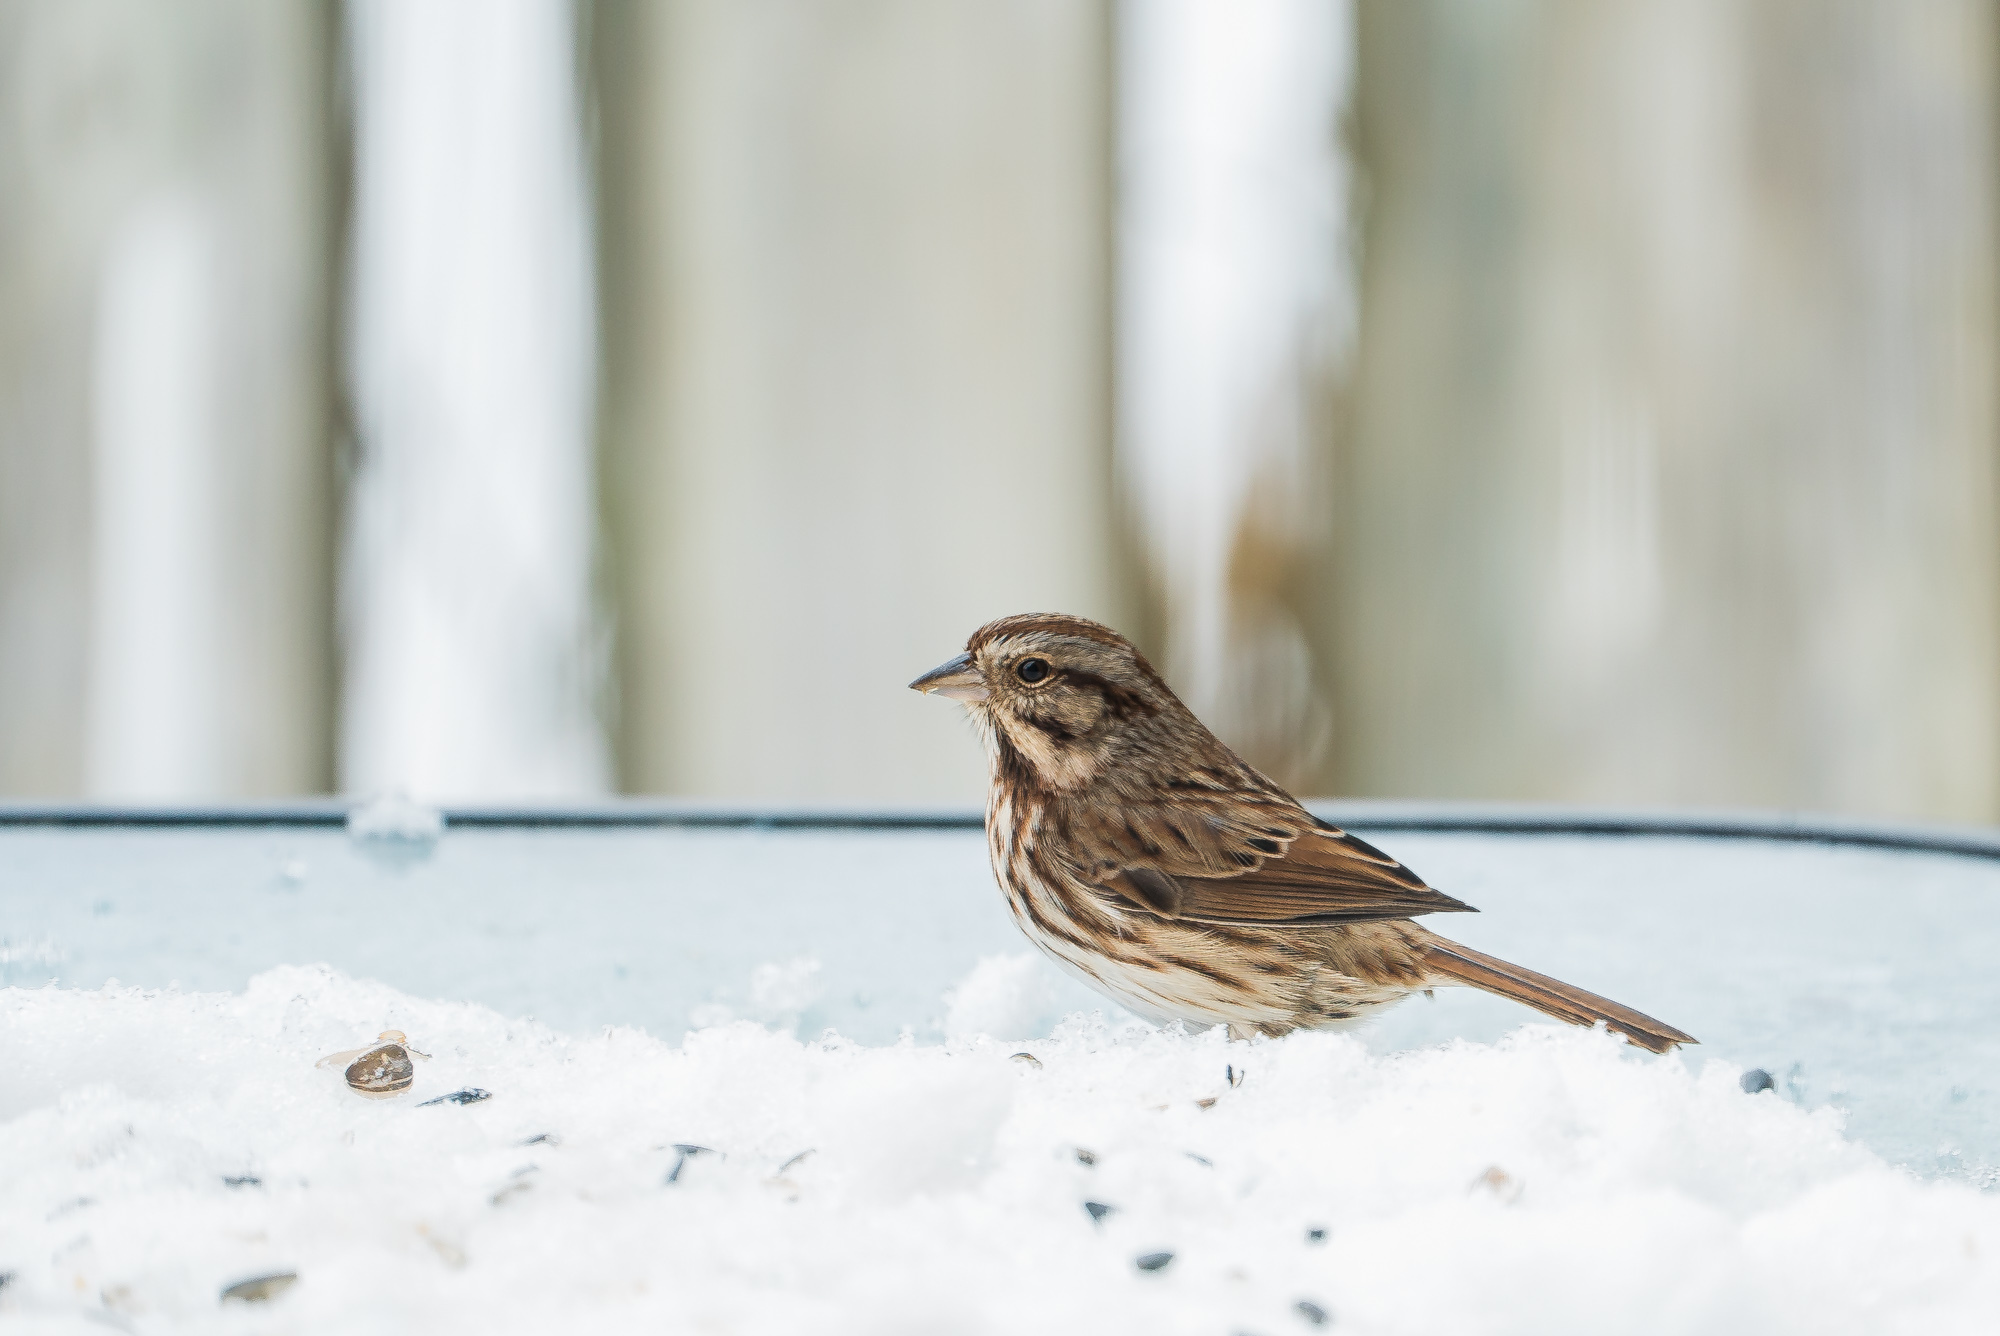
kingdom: Animalia
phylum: Chordata
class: Aves
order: Passeriformes
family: Passerellidae
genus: Melospiza
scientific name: Melospiza melodia
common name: Song sparrow
